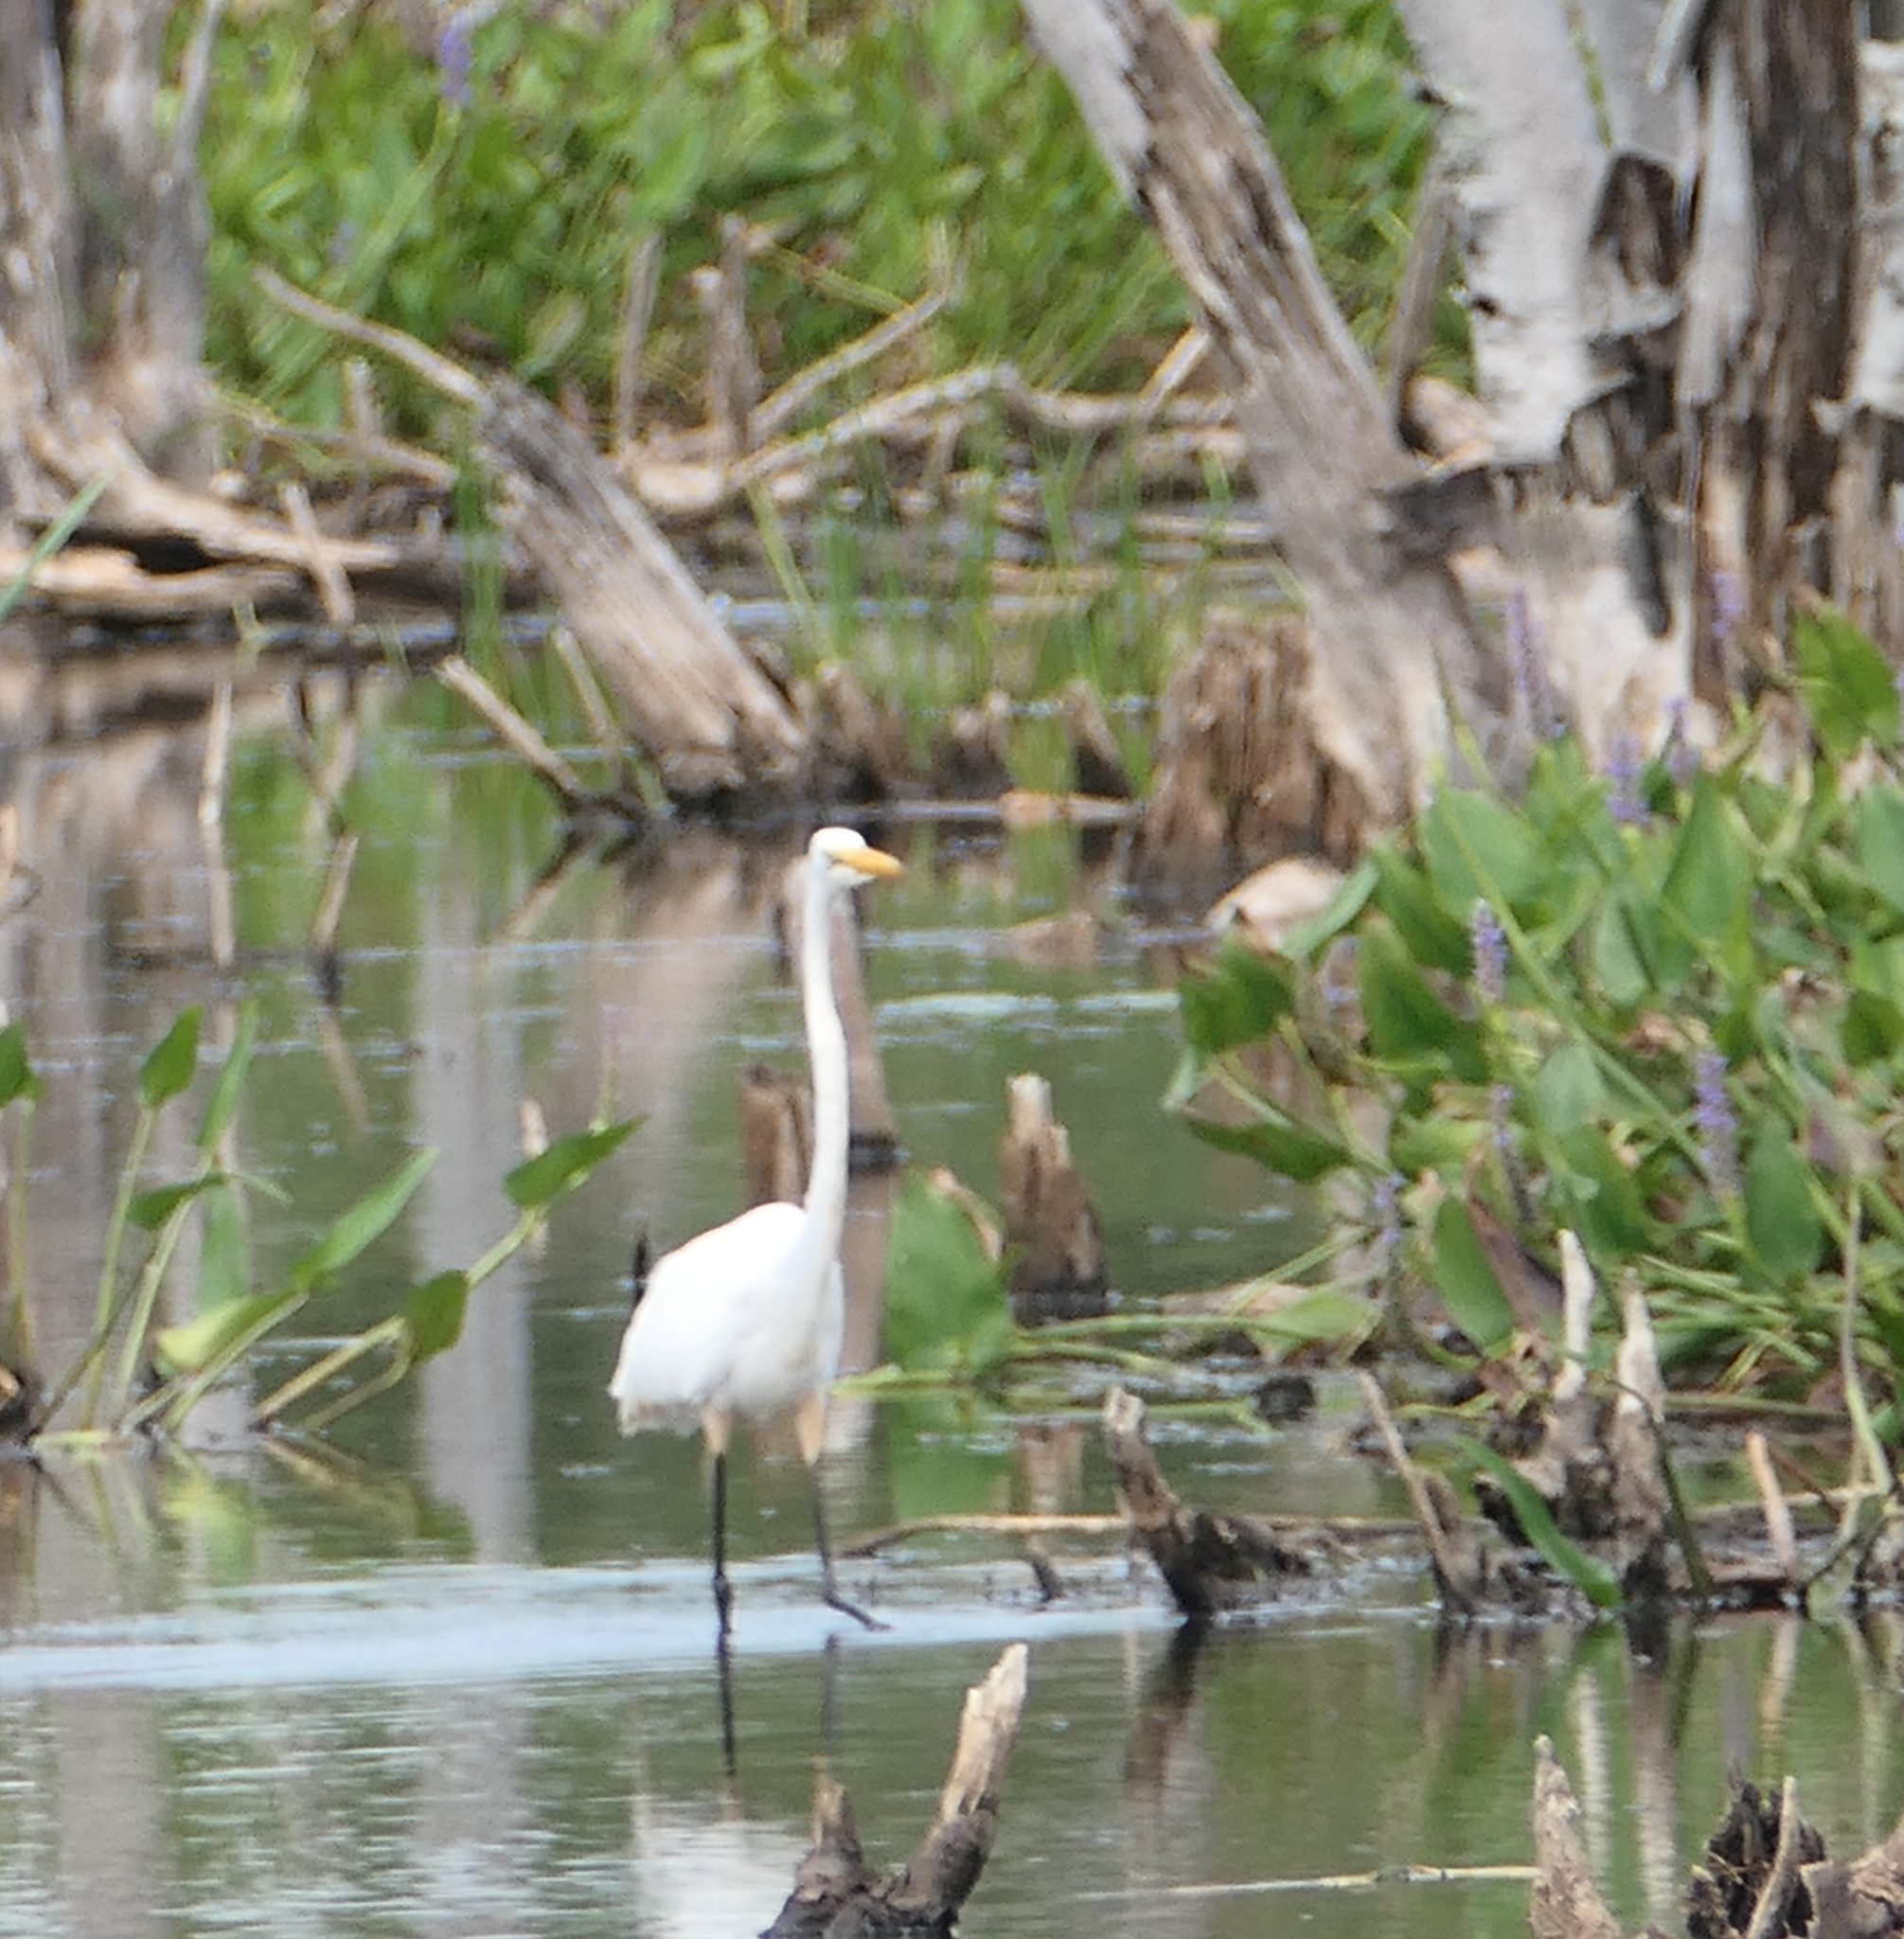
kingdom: Animalia
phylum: Chordata
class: Aves
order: Pelecaniformes
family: Ardeidae
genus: Ardea
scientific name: Ardea alba
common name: Great egret
